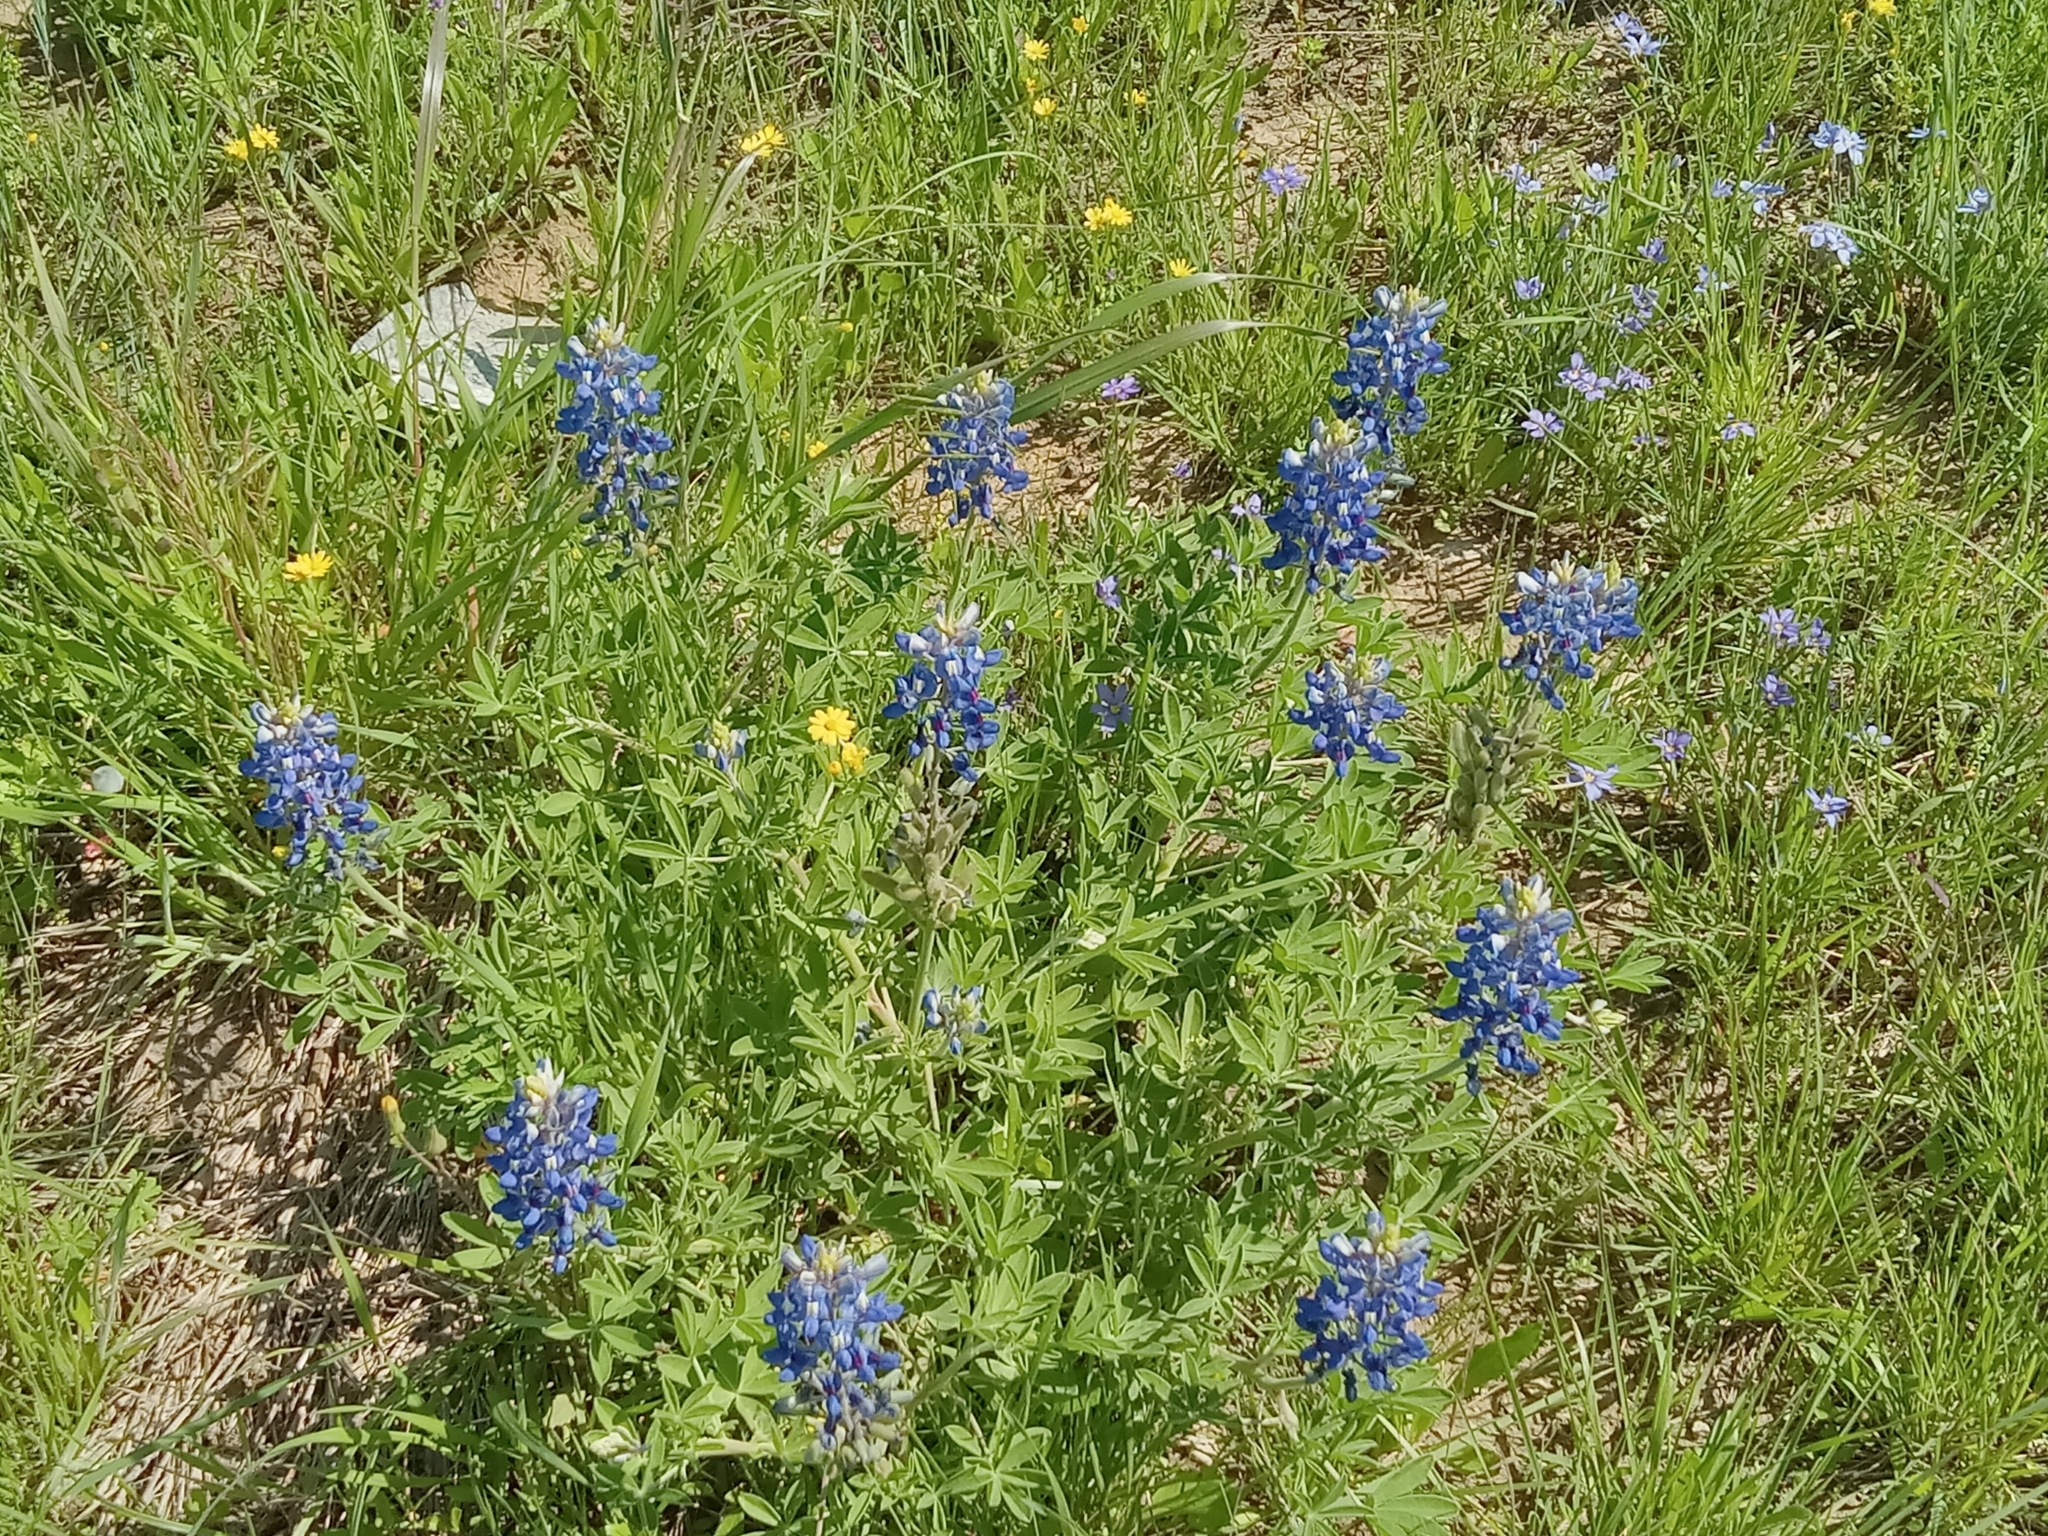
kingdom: Plantae
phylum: Tracheophyta
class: Magnoliopsida
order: Fabales
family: Fabaceae
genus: Lupinus
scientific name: Lupinus texensis
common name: Texas bluebonnet
